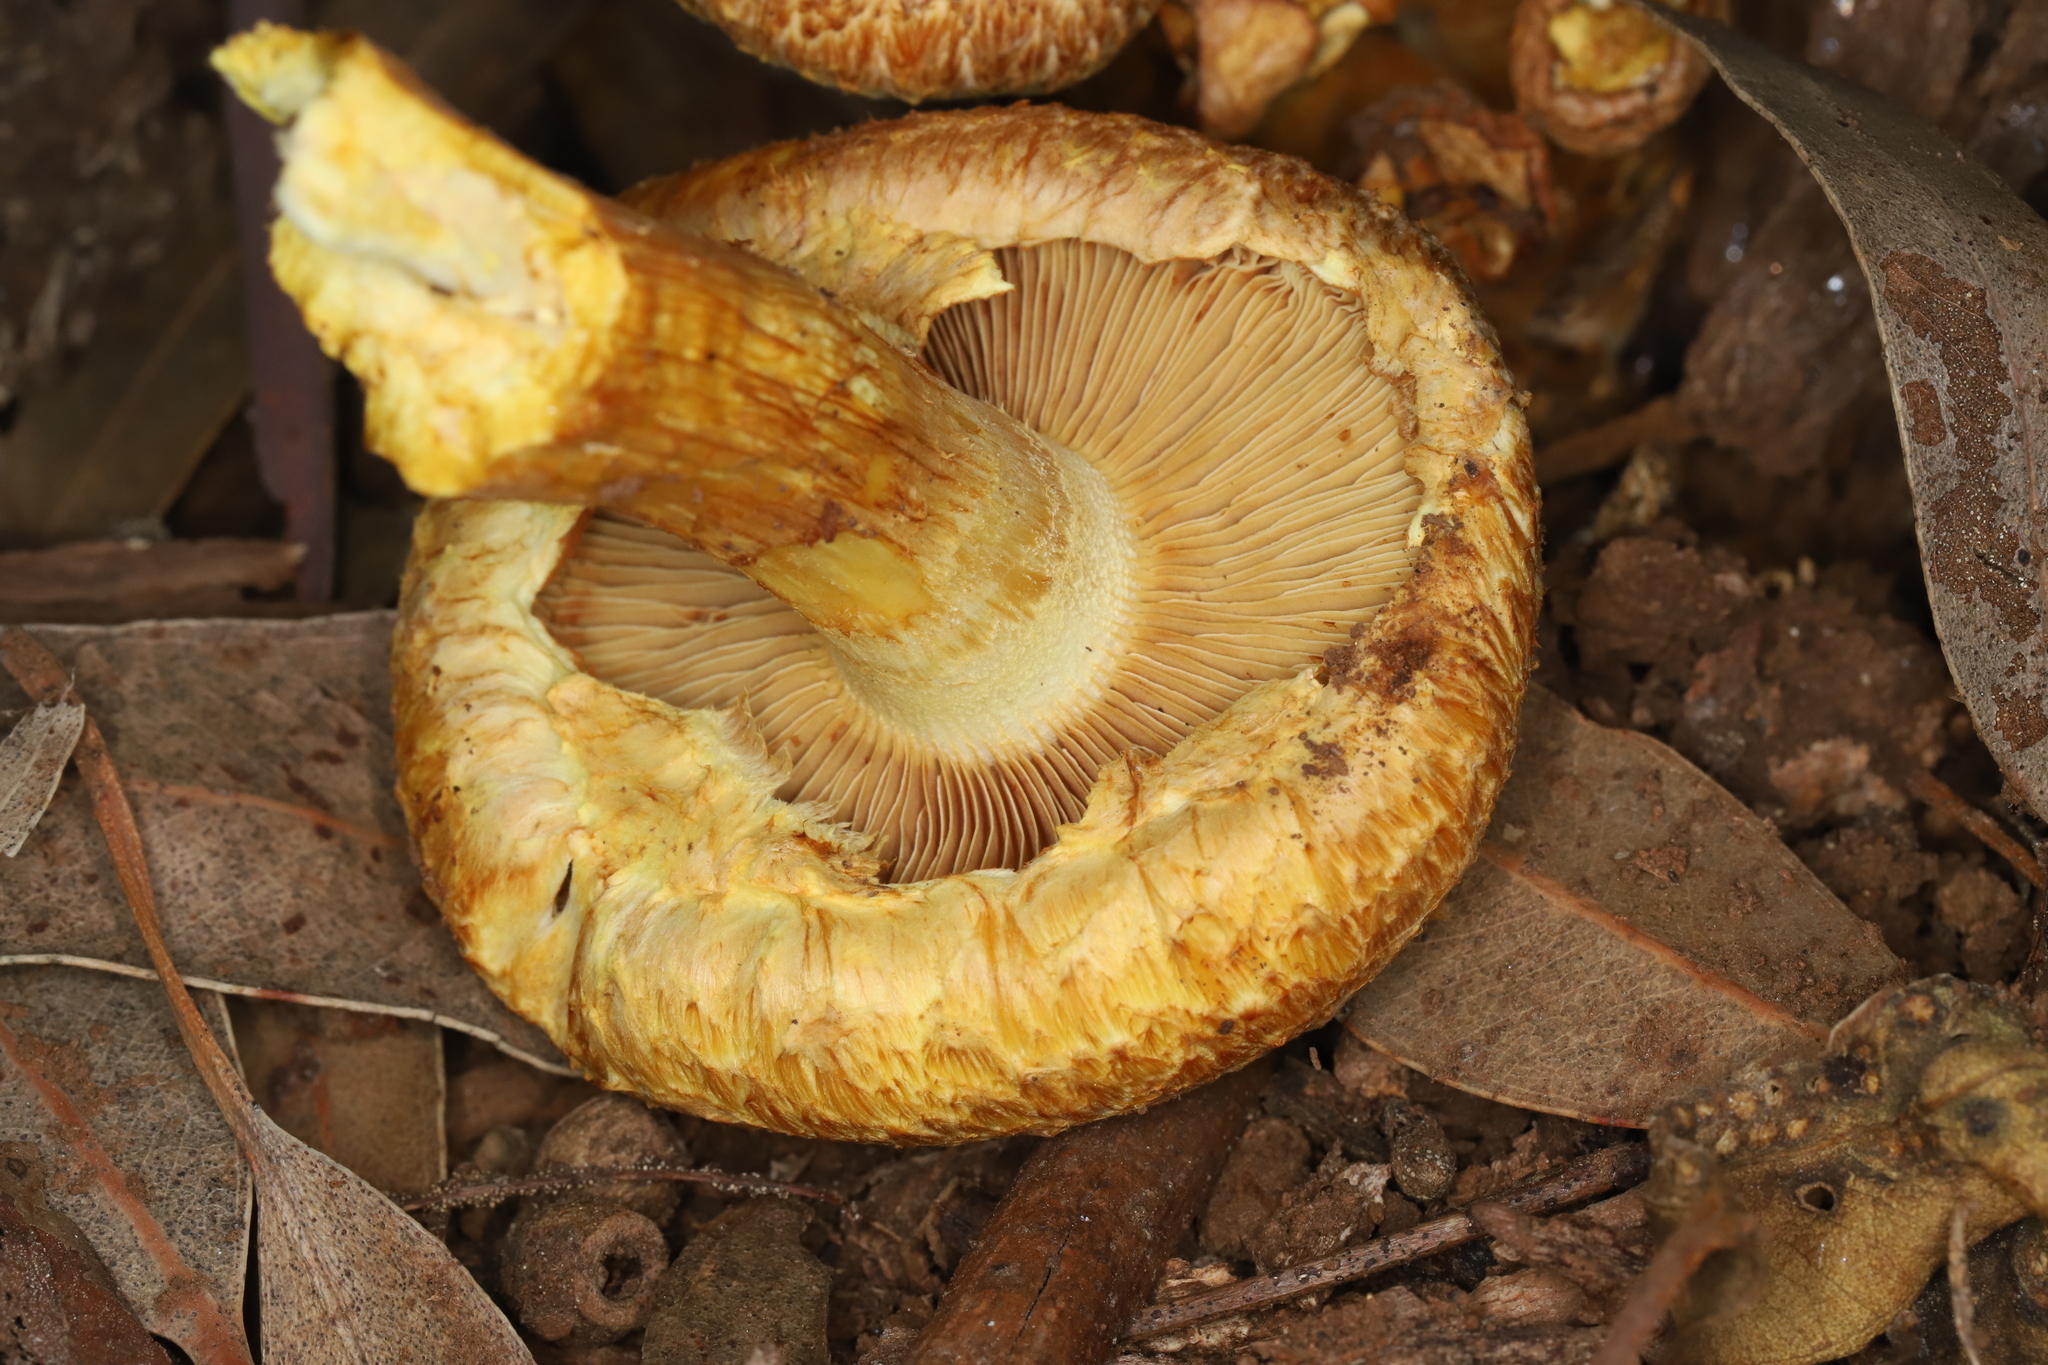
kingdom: Fungi
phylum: Basidiomycota
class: Agaricomycetes
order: Agaricales
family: Hymenogastraceae
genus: Gymnopilus
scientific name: Gymnopilus junonius
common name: Spectacular rustgill
